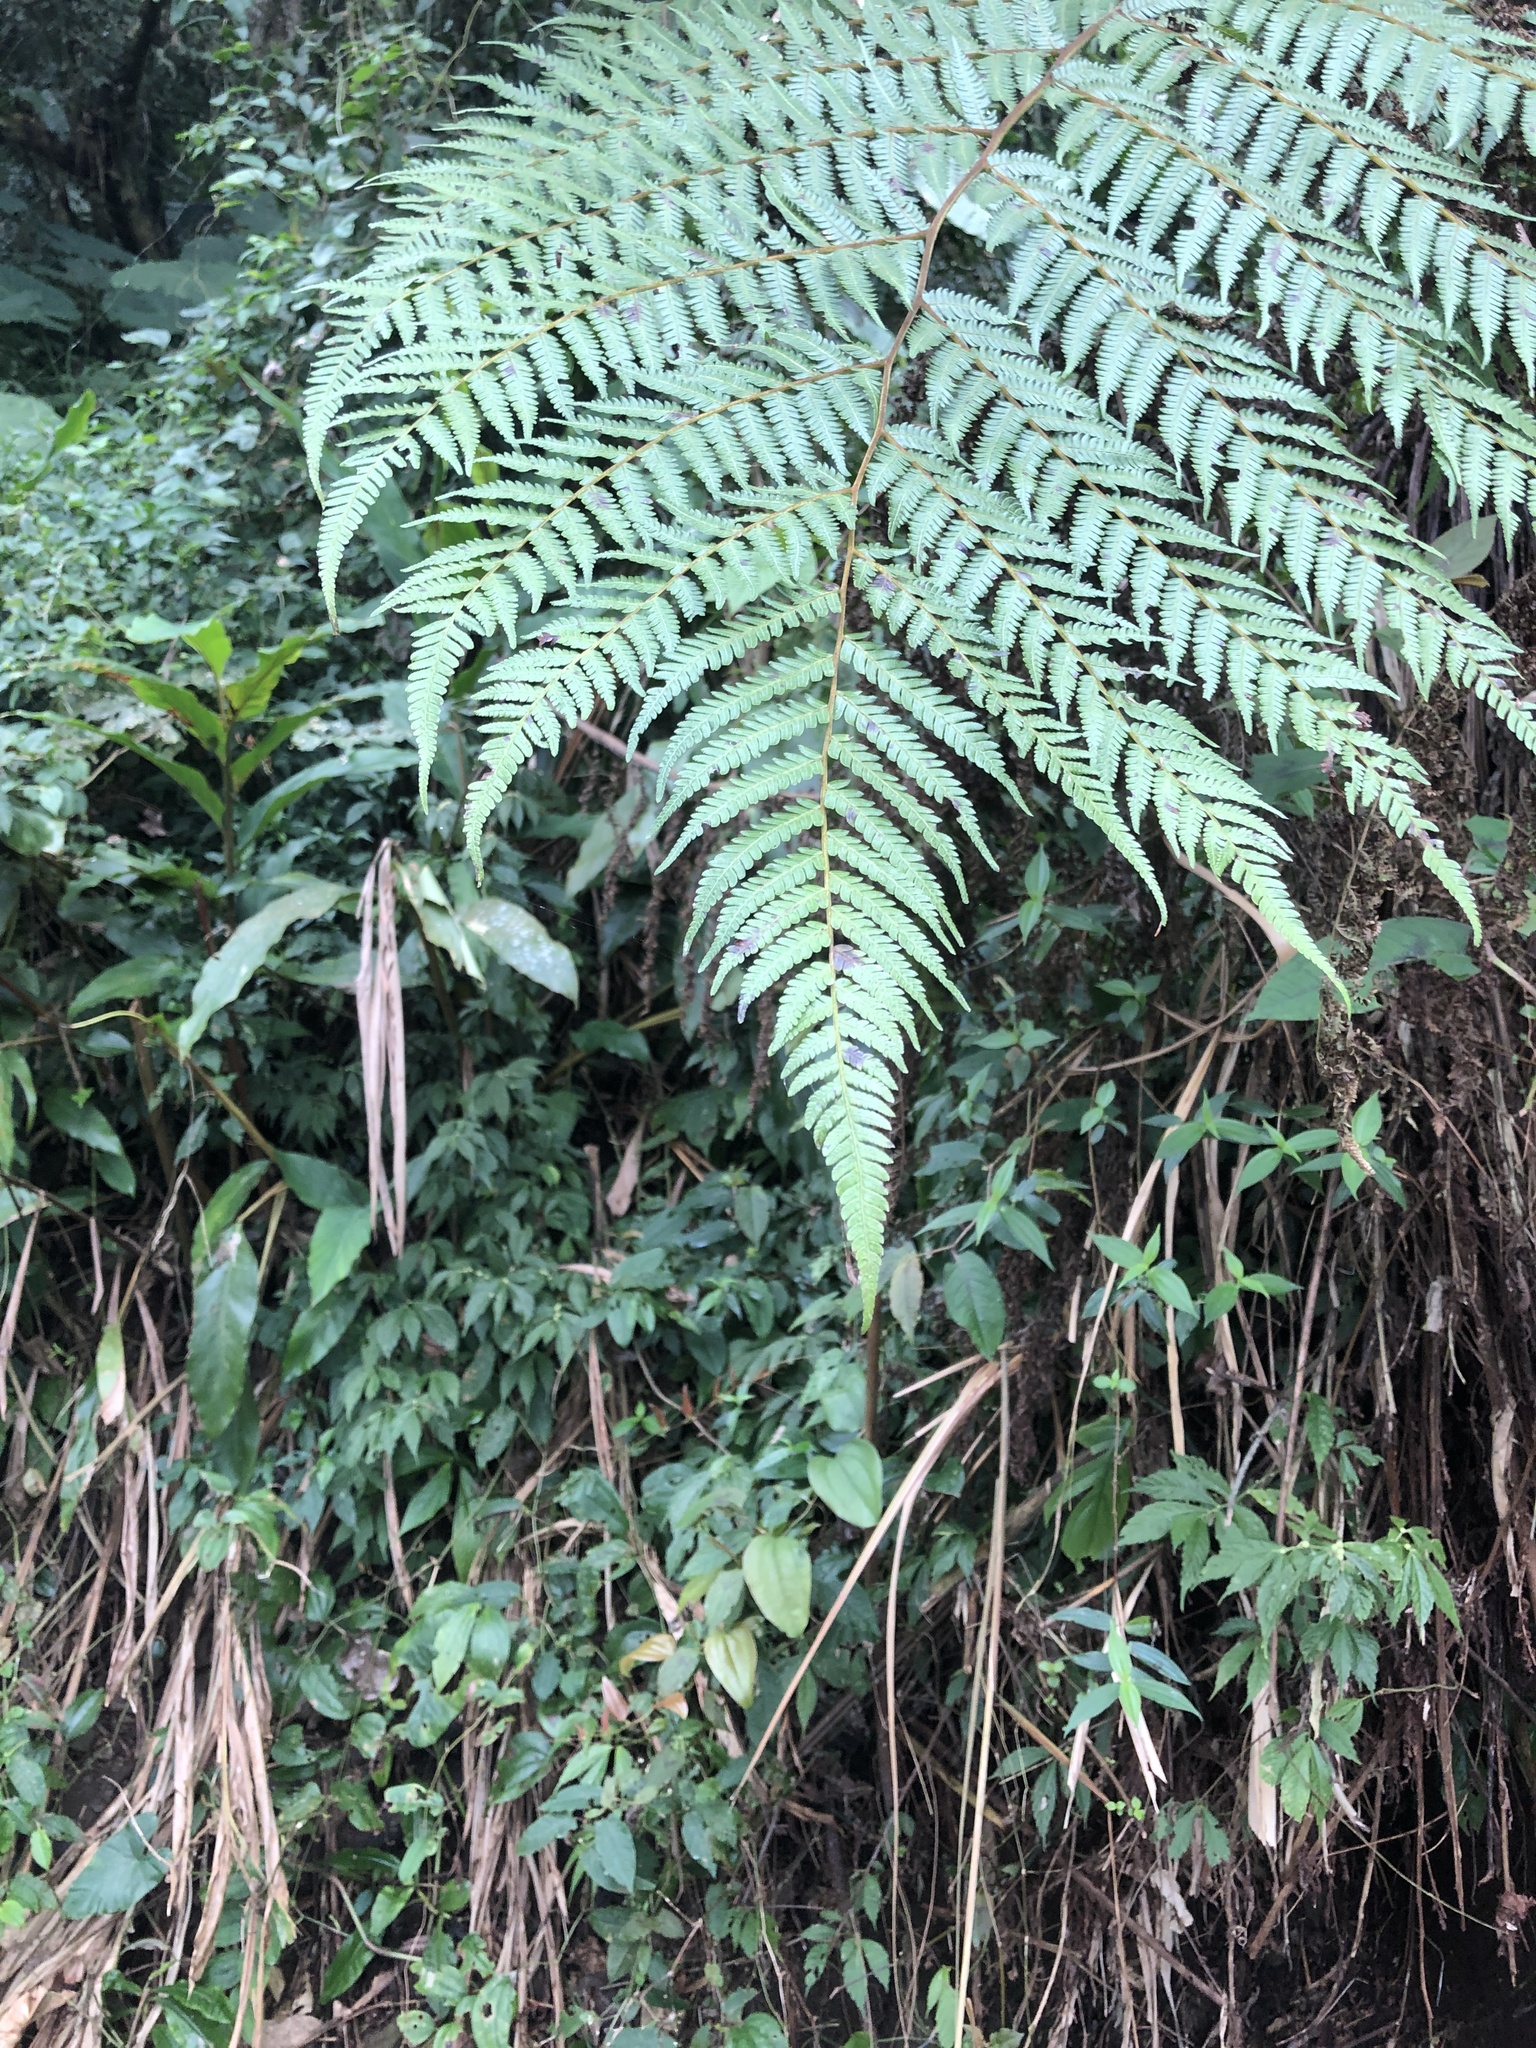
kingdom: Plantae
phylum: Tracheophyta
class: Polypodiopsida
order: Cyatheales
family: Cyatheaceae
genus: Alsophila
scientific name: Alsophila spinulosa
